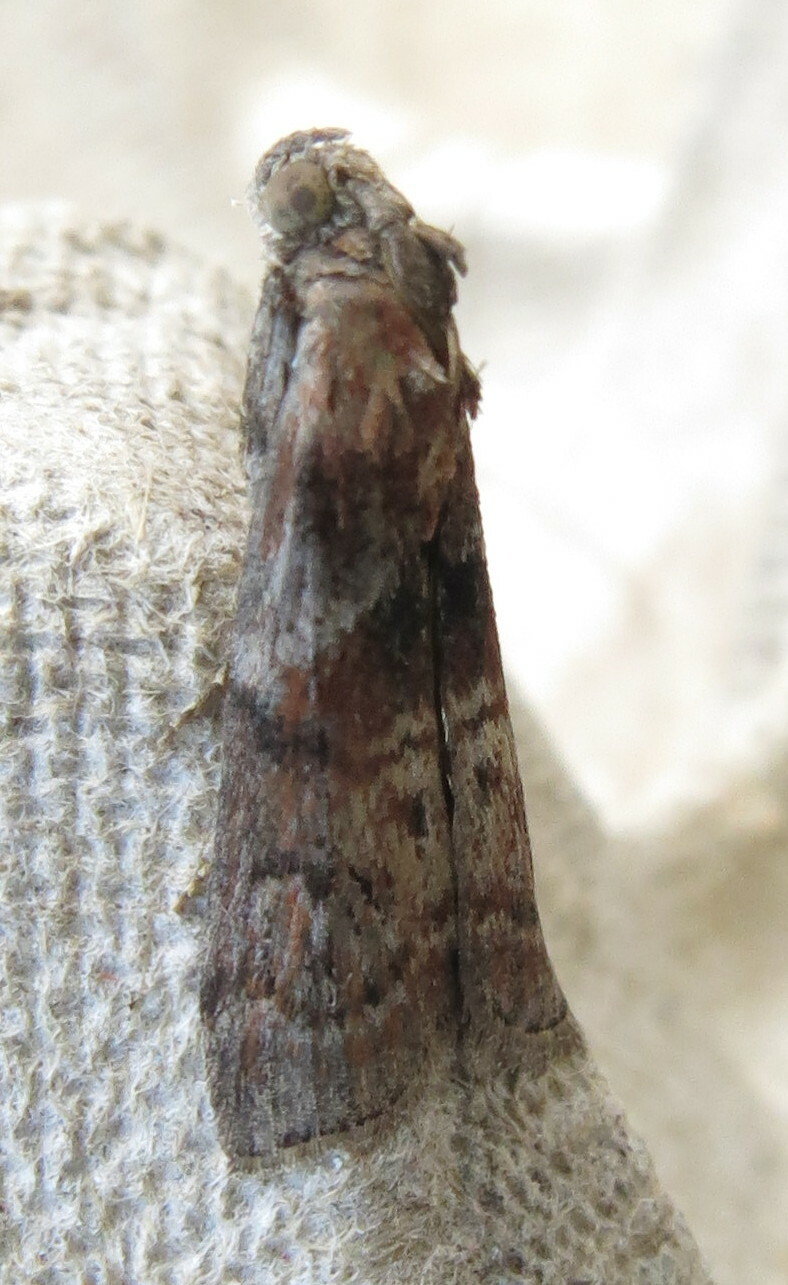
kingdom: Animalia
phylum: Arthropoda
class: Insecta
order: Lepidoptera
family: Pyralidae
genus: Phycita
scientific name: Phycita roborella
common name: Dotted oak knot-horn
